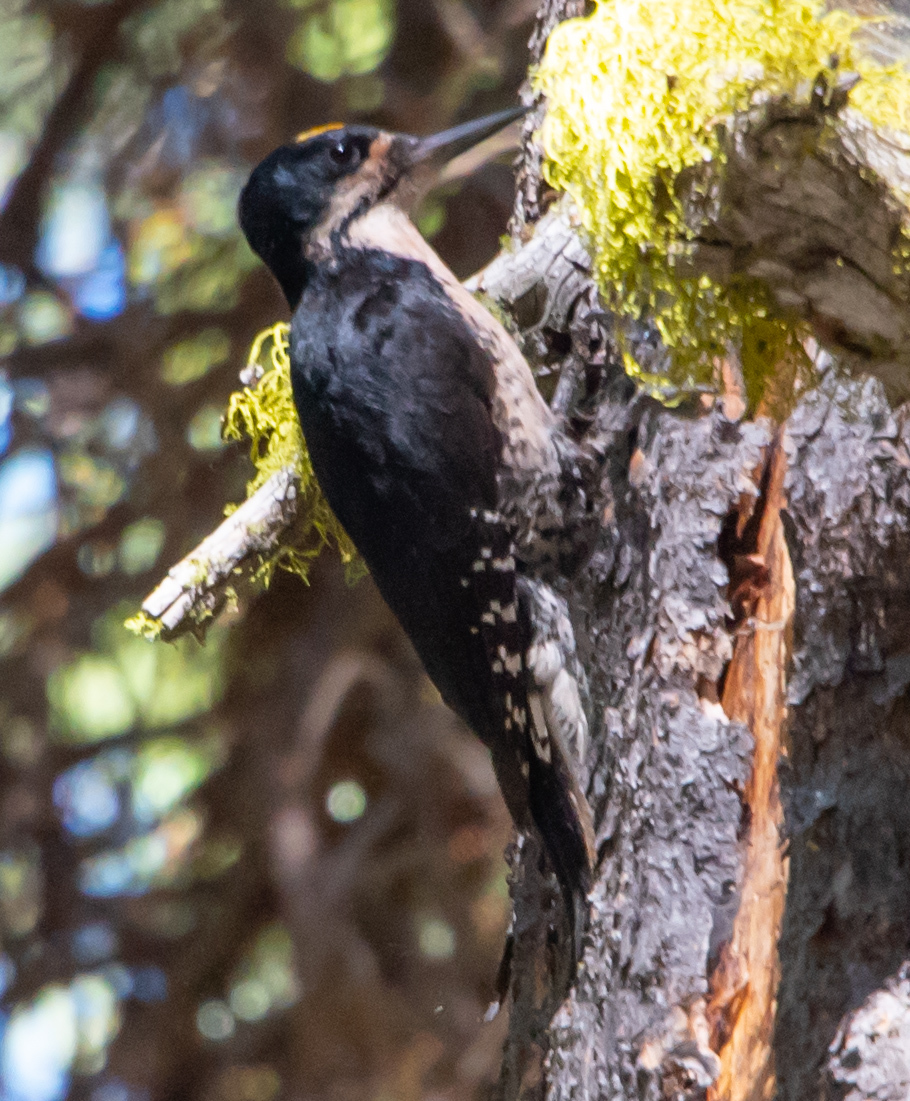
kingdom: Animalia
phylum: Chordata
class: Aves
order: Piciformes
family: Picidae
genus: Picoides
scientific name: Picoides arcticus
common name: Black-backed woodpecker
